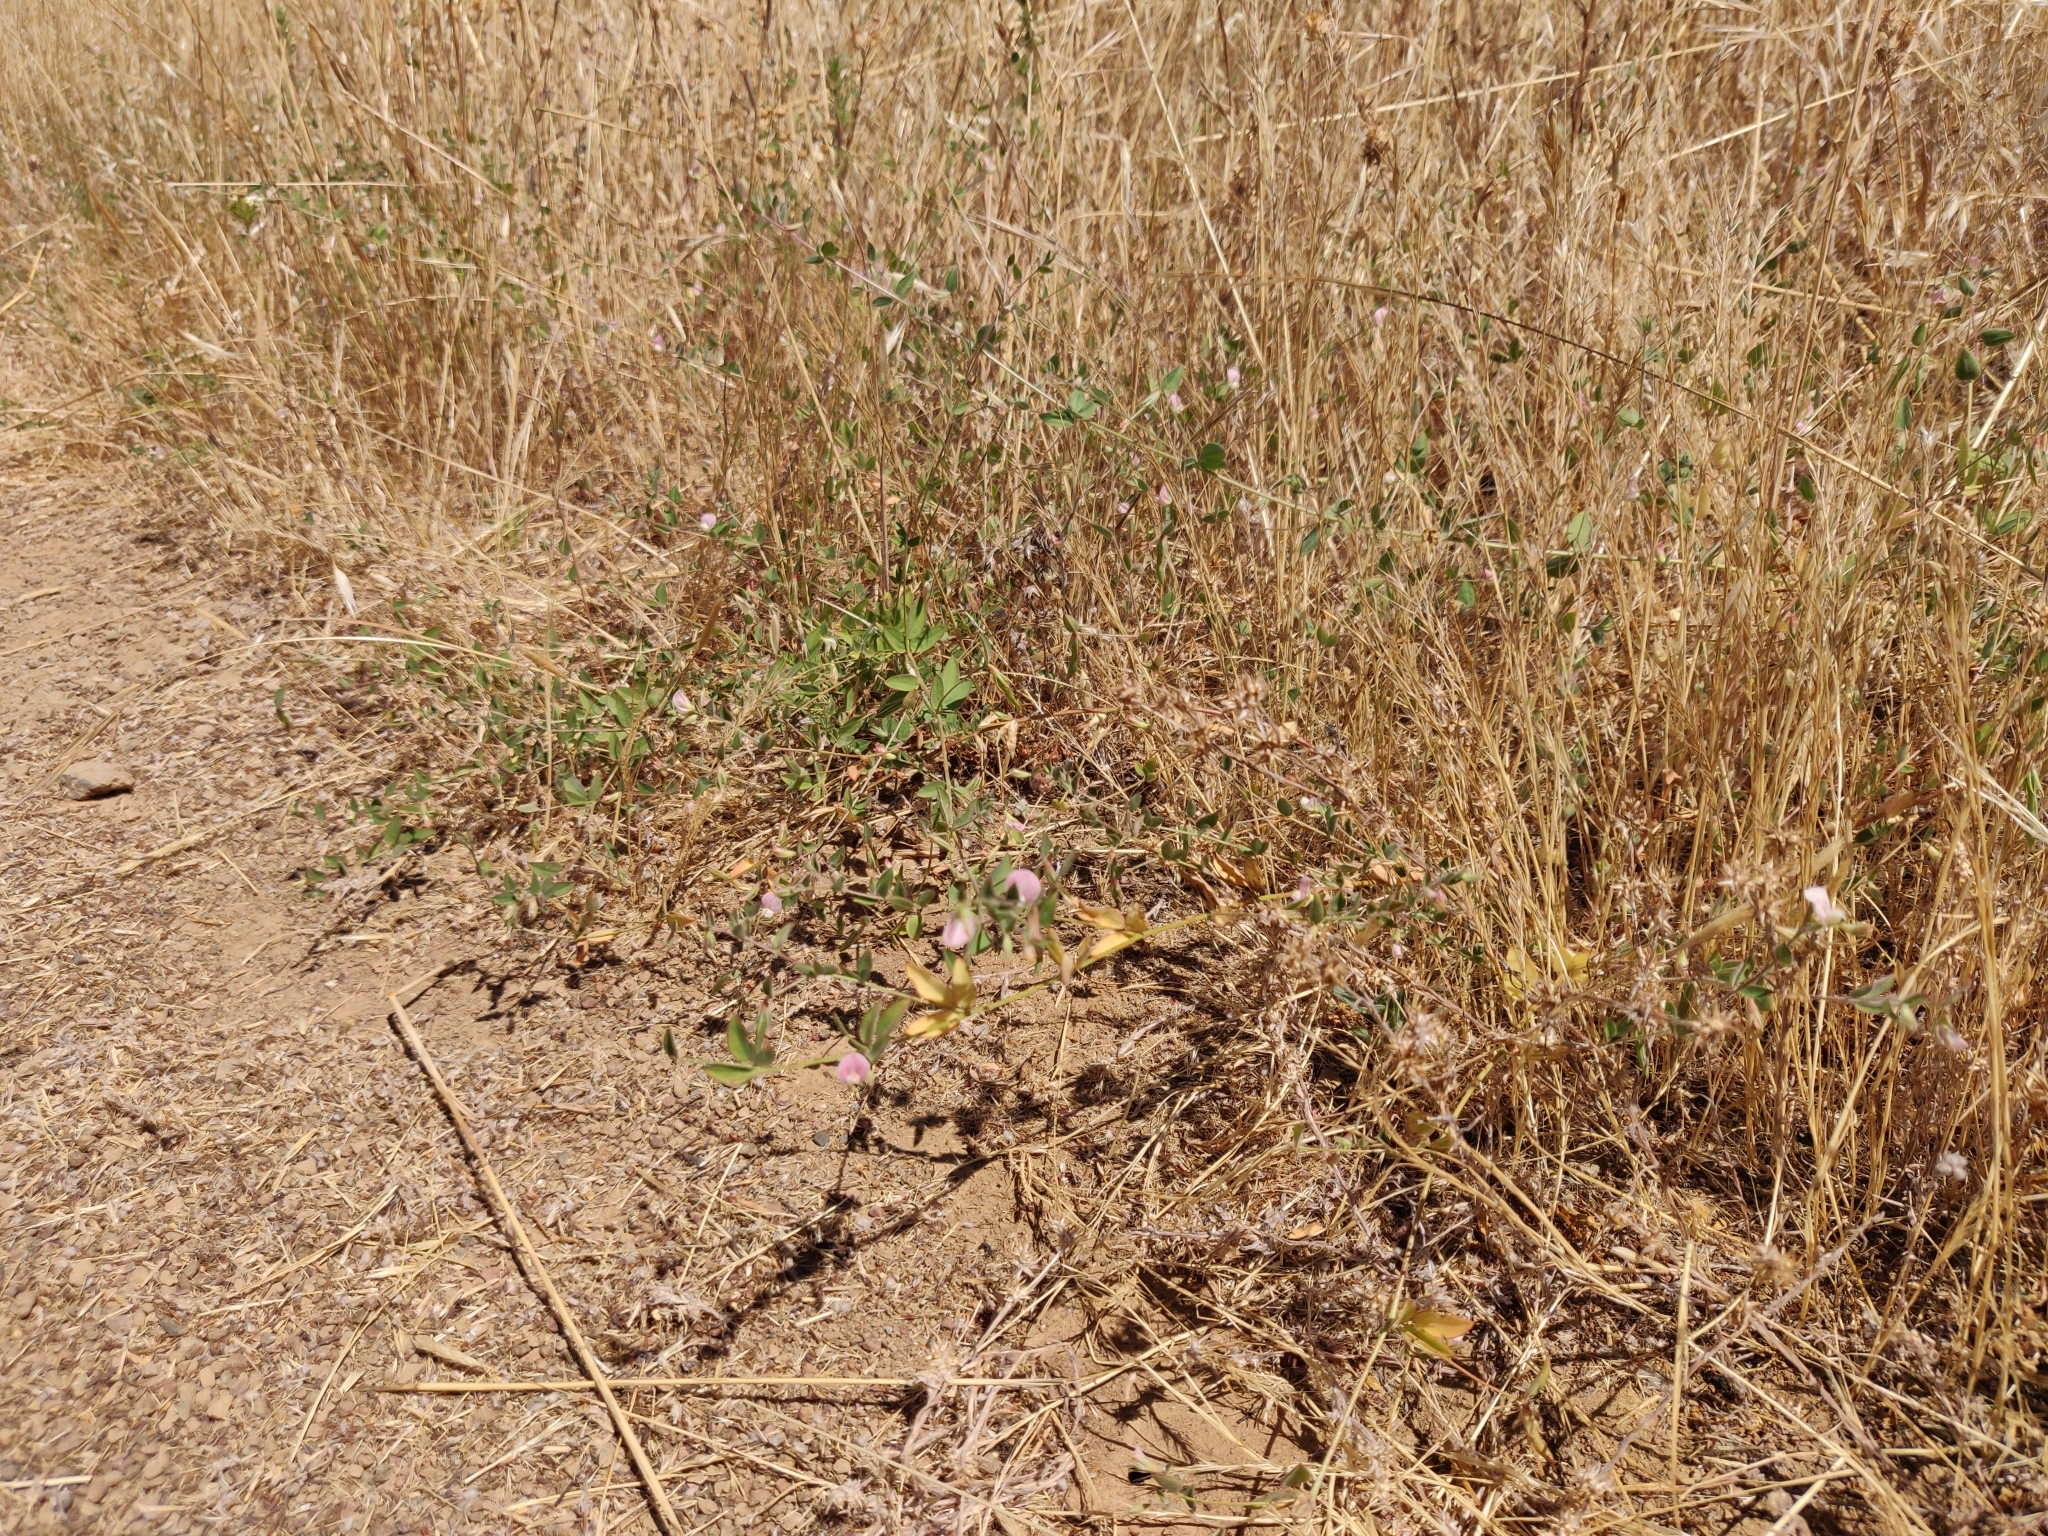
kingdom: Plantae
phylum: Tracheophyta
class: Magnoliopsida
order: Fabales
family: Fabaceae
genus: Acmispon
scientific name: Acmispon americanus
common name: American bird's-foot trefoil
